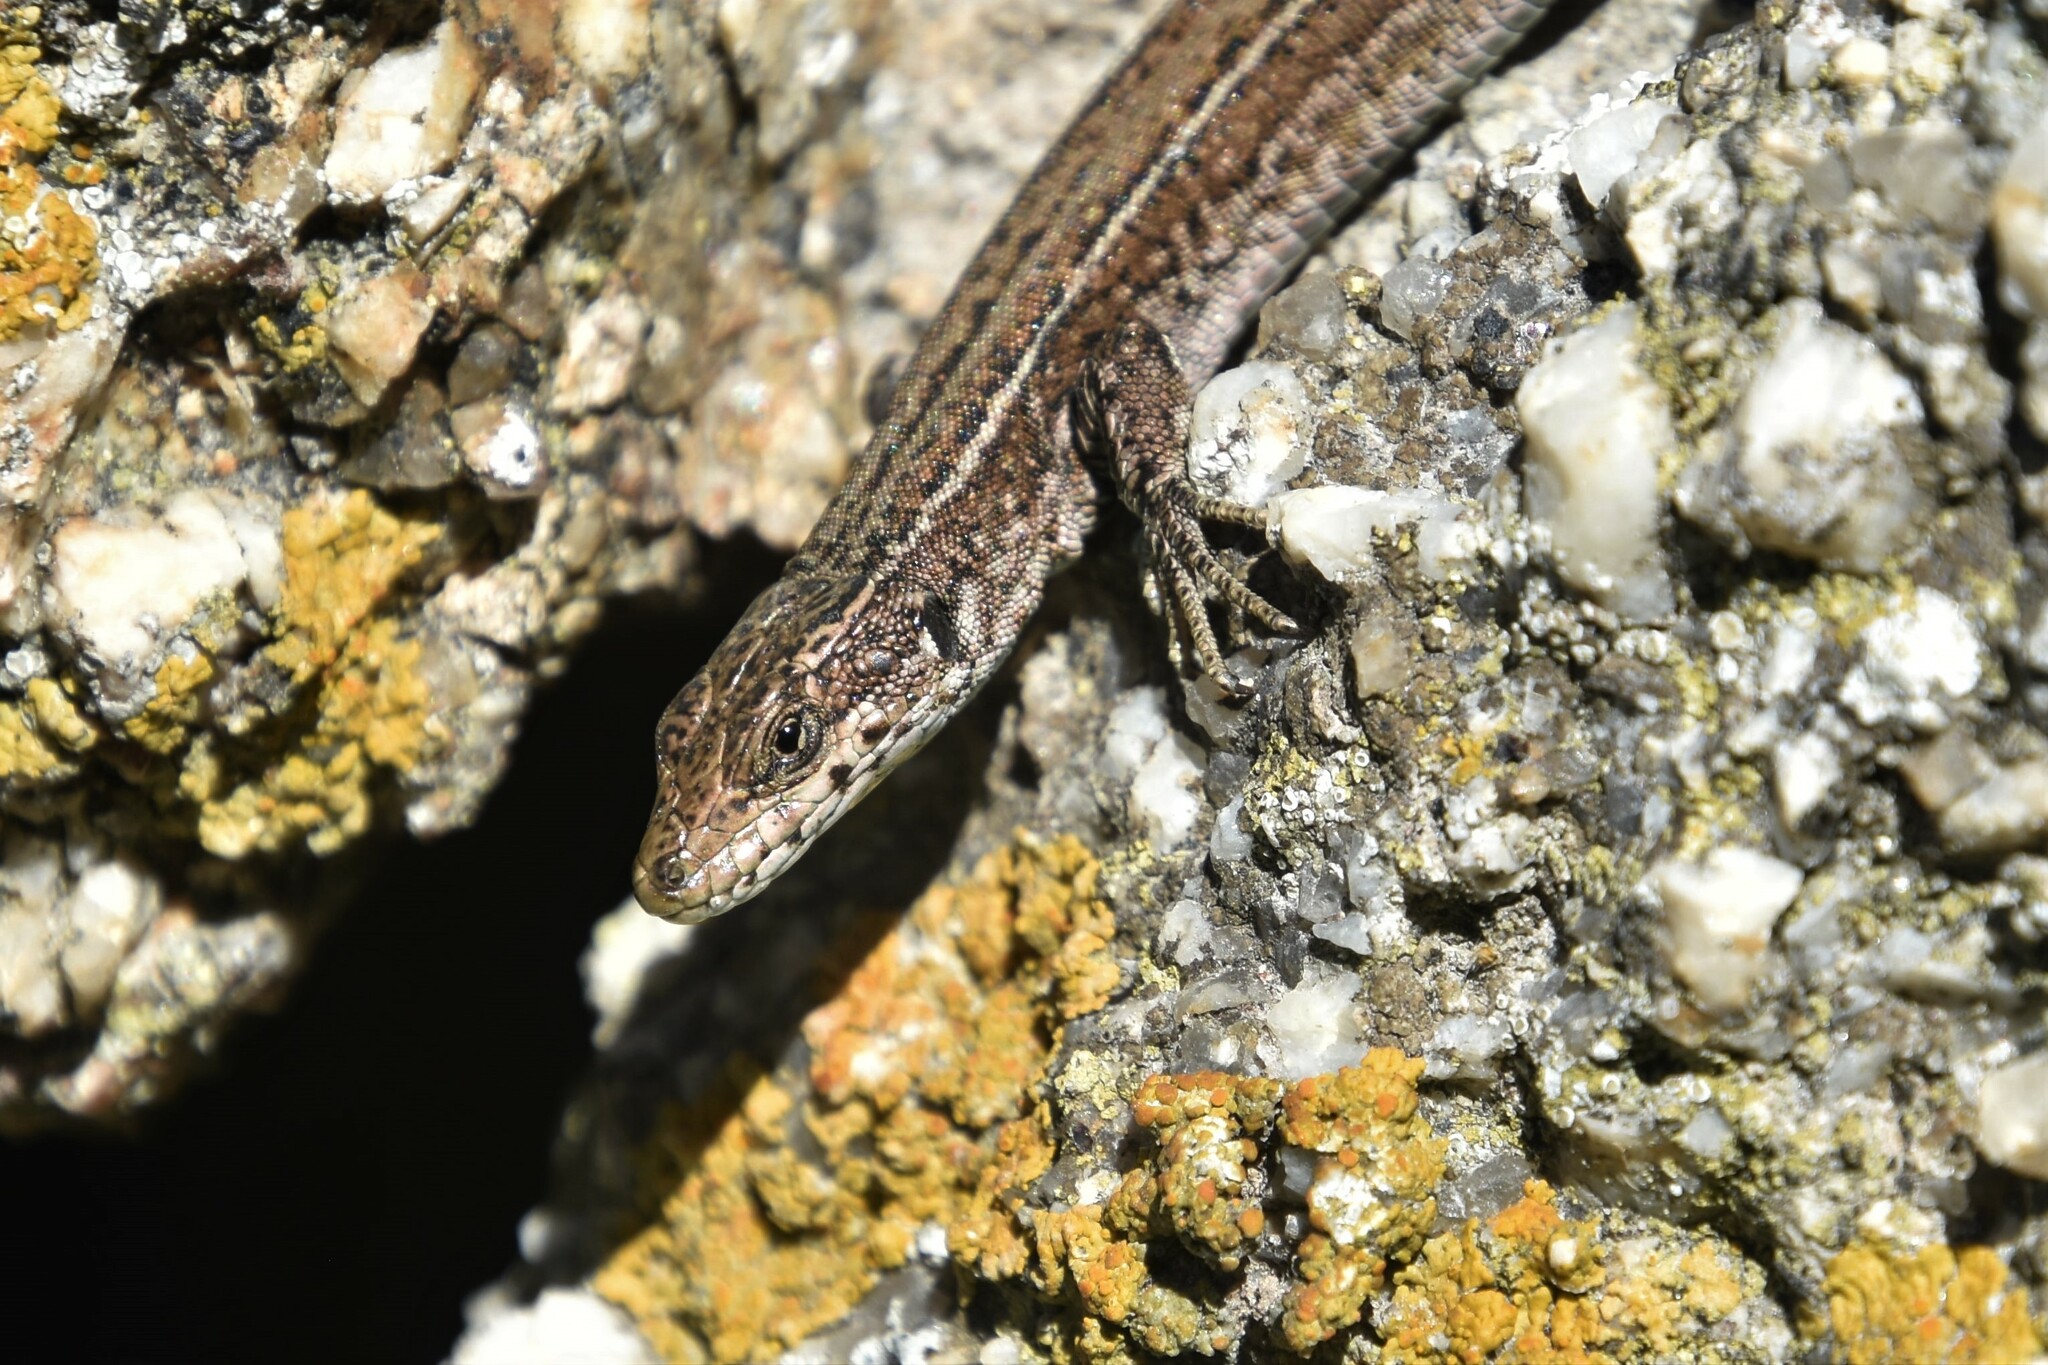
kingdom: Animalia
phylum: Chordata
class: Squamata
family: Lacertidae
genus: Podarcis
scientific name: Podarcis
